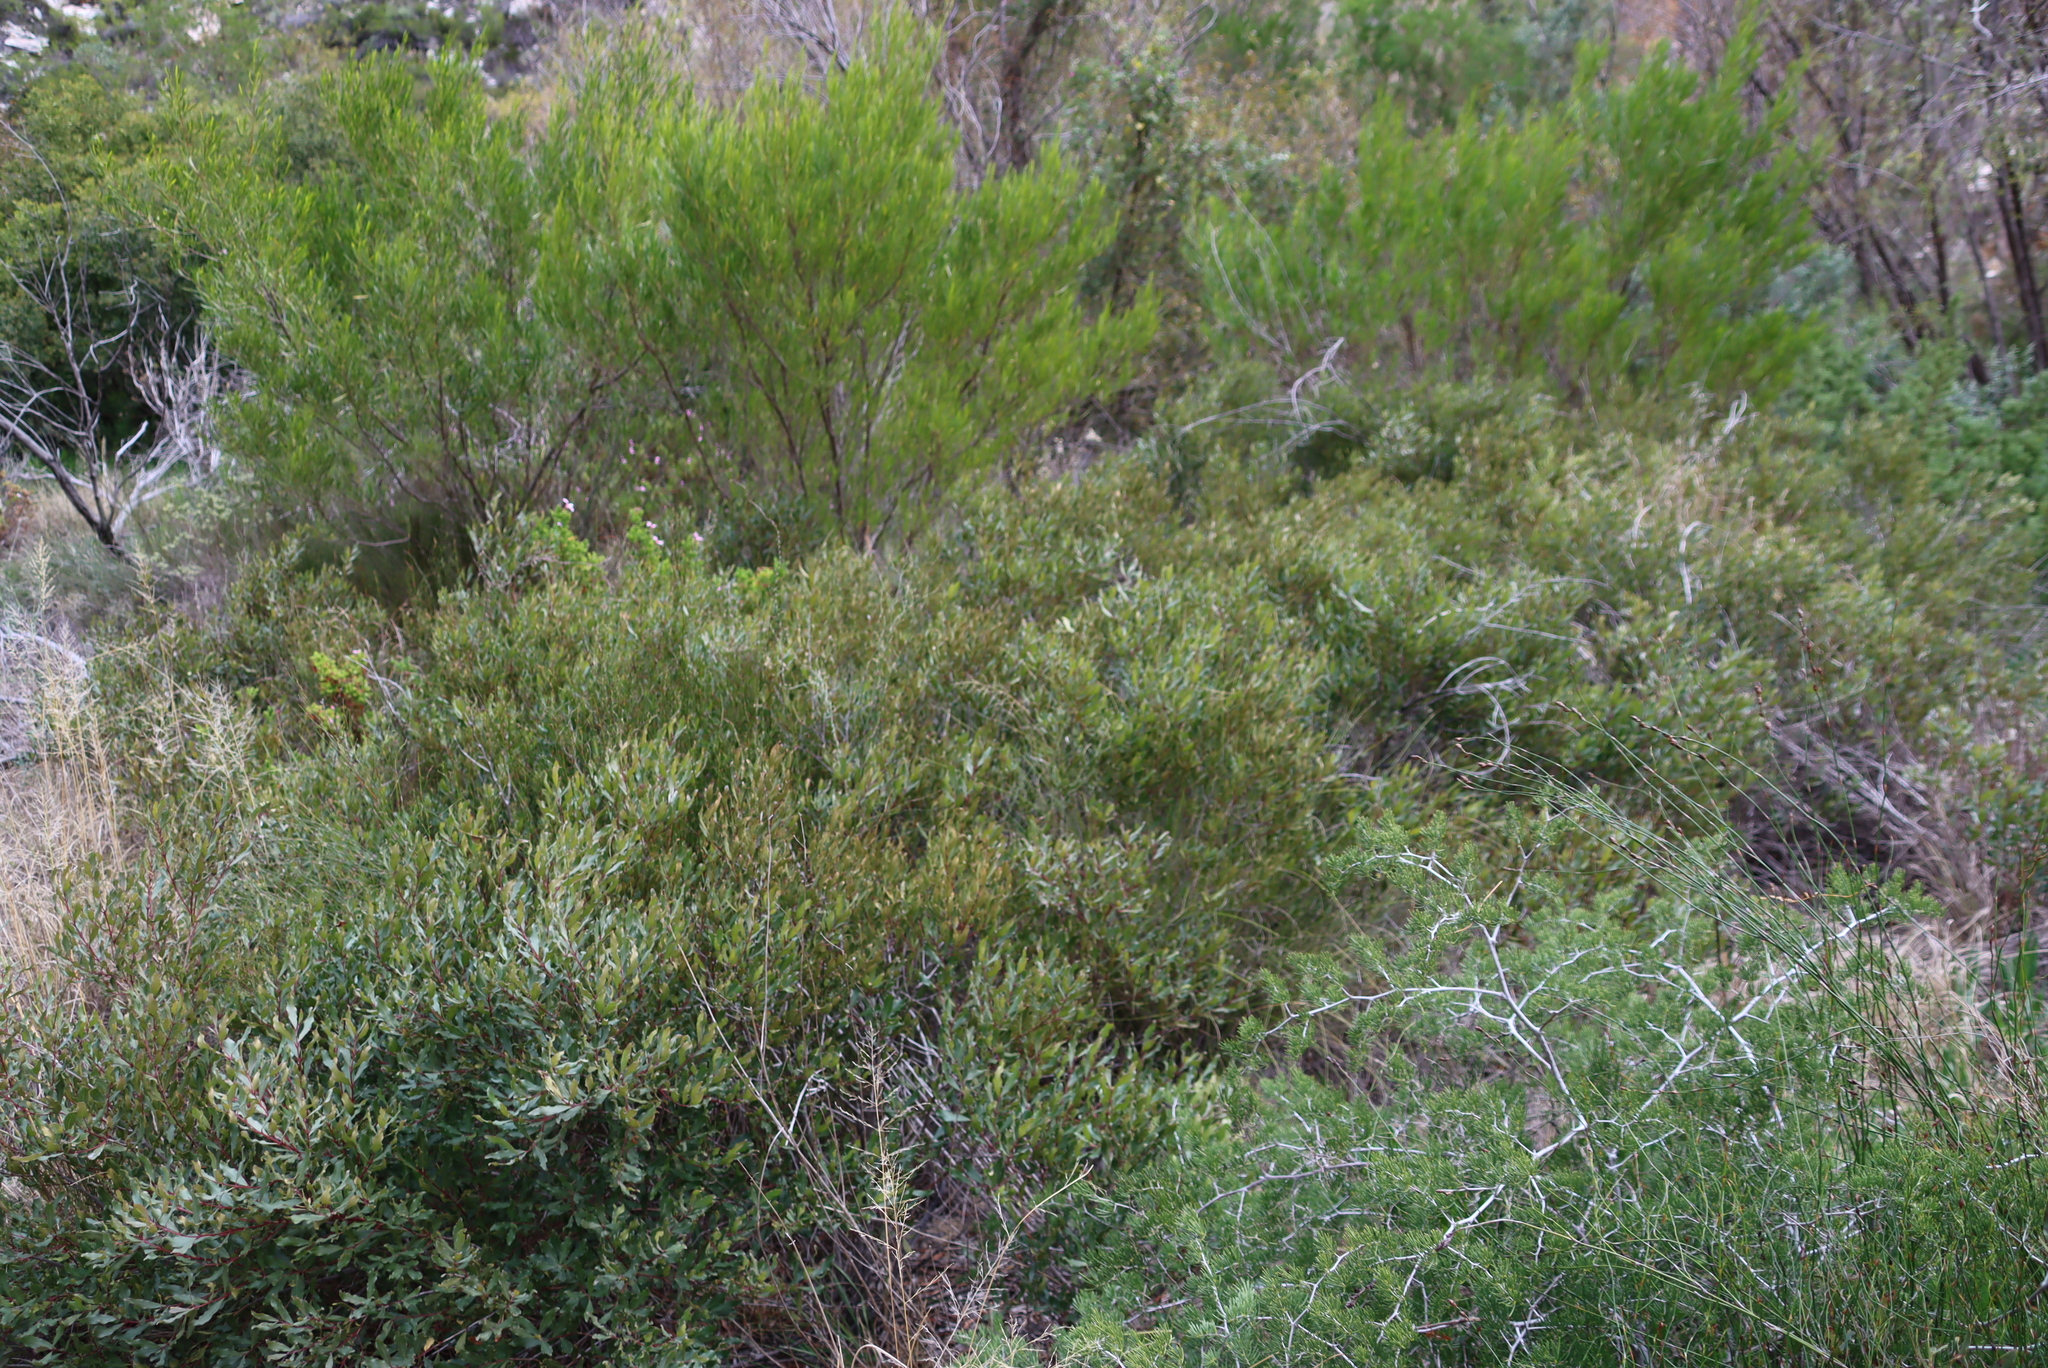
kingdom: Plantae
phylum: Tracheophyta
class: Magnoliopsida
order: Sapindales
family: Sapindaceae
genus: Dodonaea
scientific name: Dodonaea viscosa
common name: Hopbush
